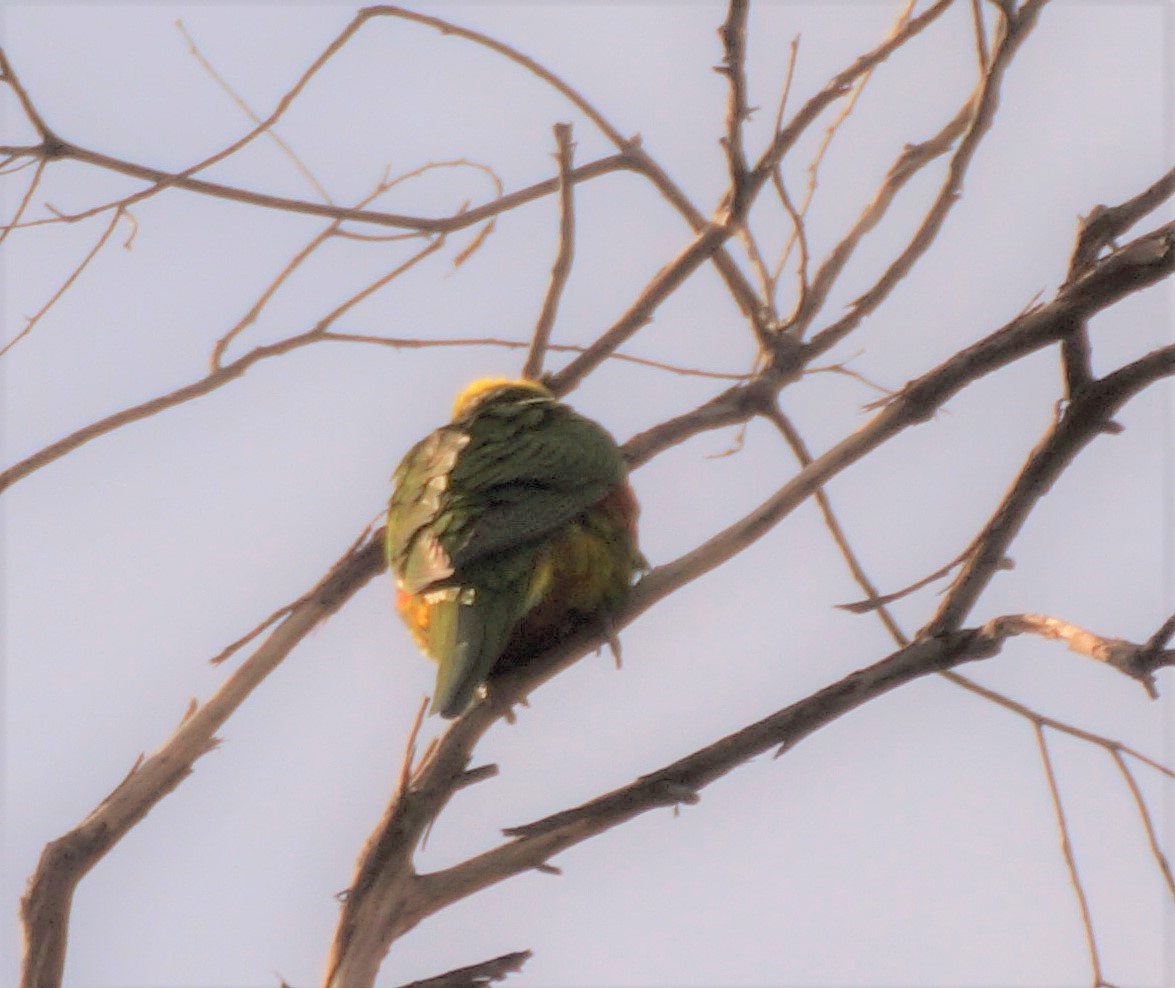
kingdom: Animalia
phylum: Chordata
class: Aves
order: Psittaciformes
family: Psittacidae
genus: Trichoglossus
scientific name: Trichoglossus haematodus
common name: Coconut lorikeet
